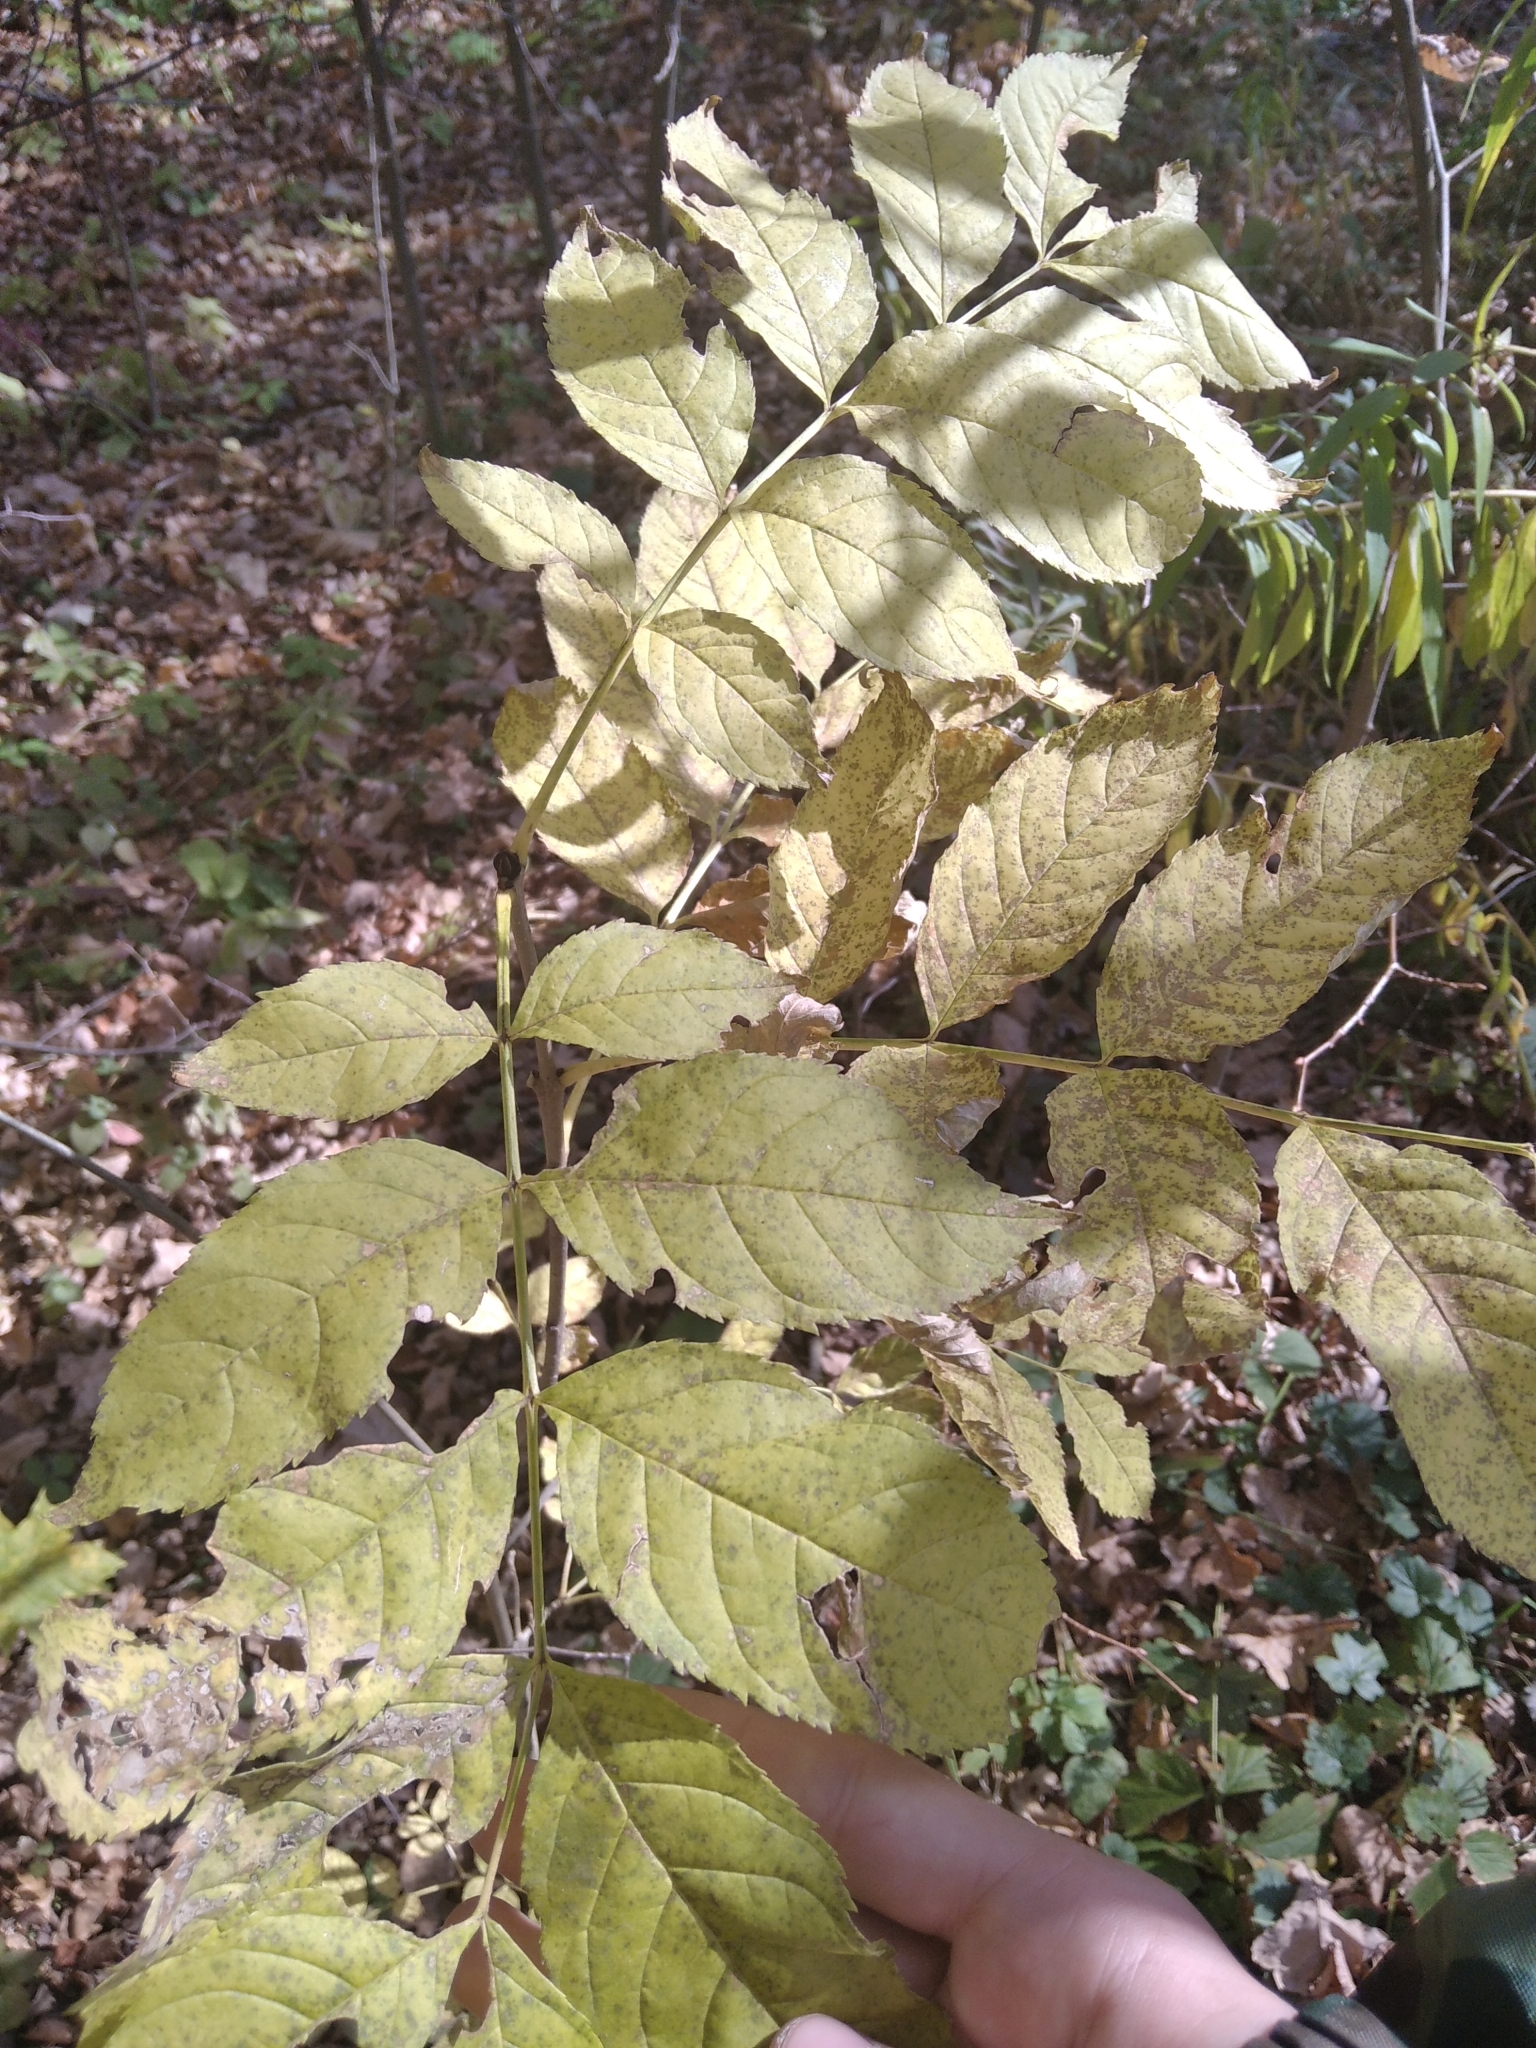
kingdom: Plantae
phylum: Tracheophyta
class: Magnoliopsida
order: Lamiales
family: Oleaceae
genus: Fraxinus
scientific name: Fraxinus excelsior
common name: European ash
